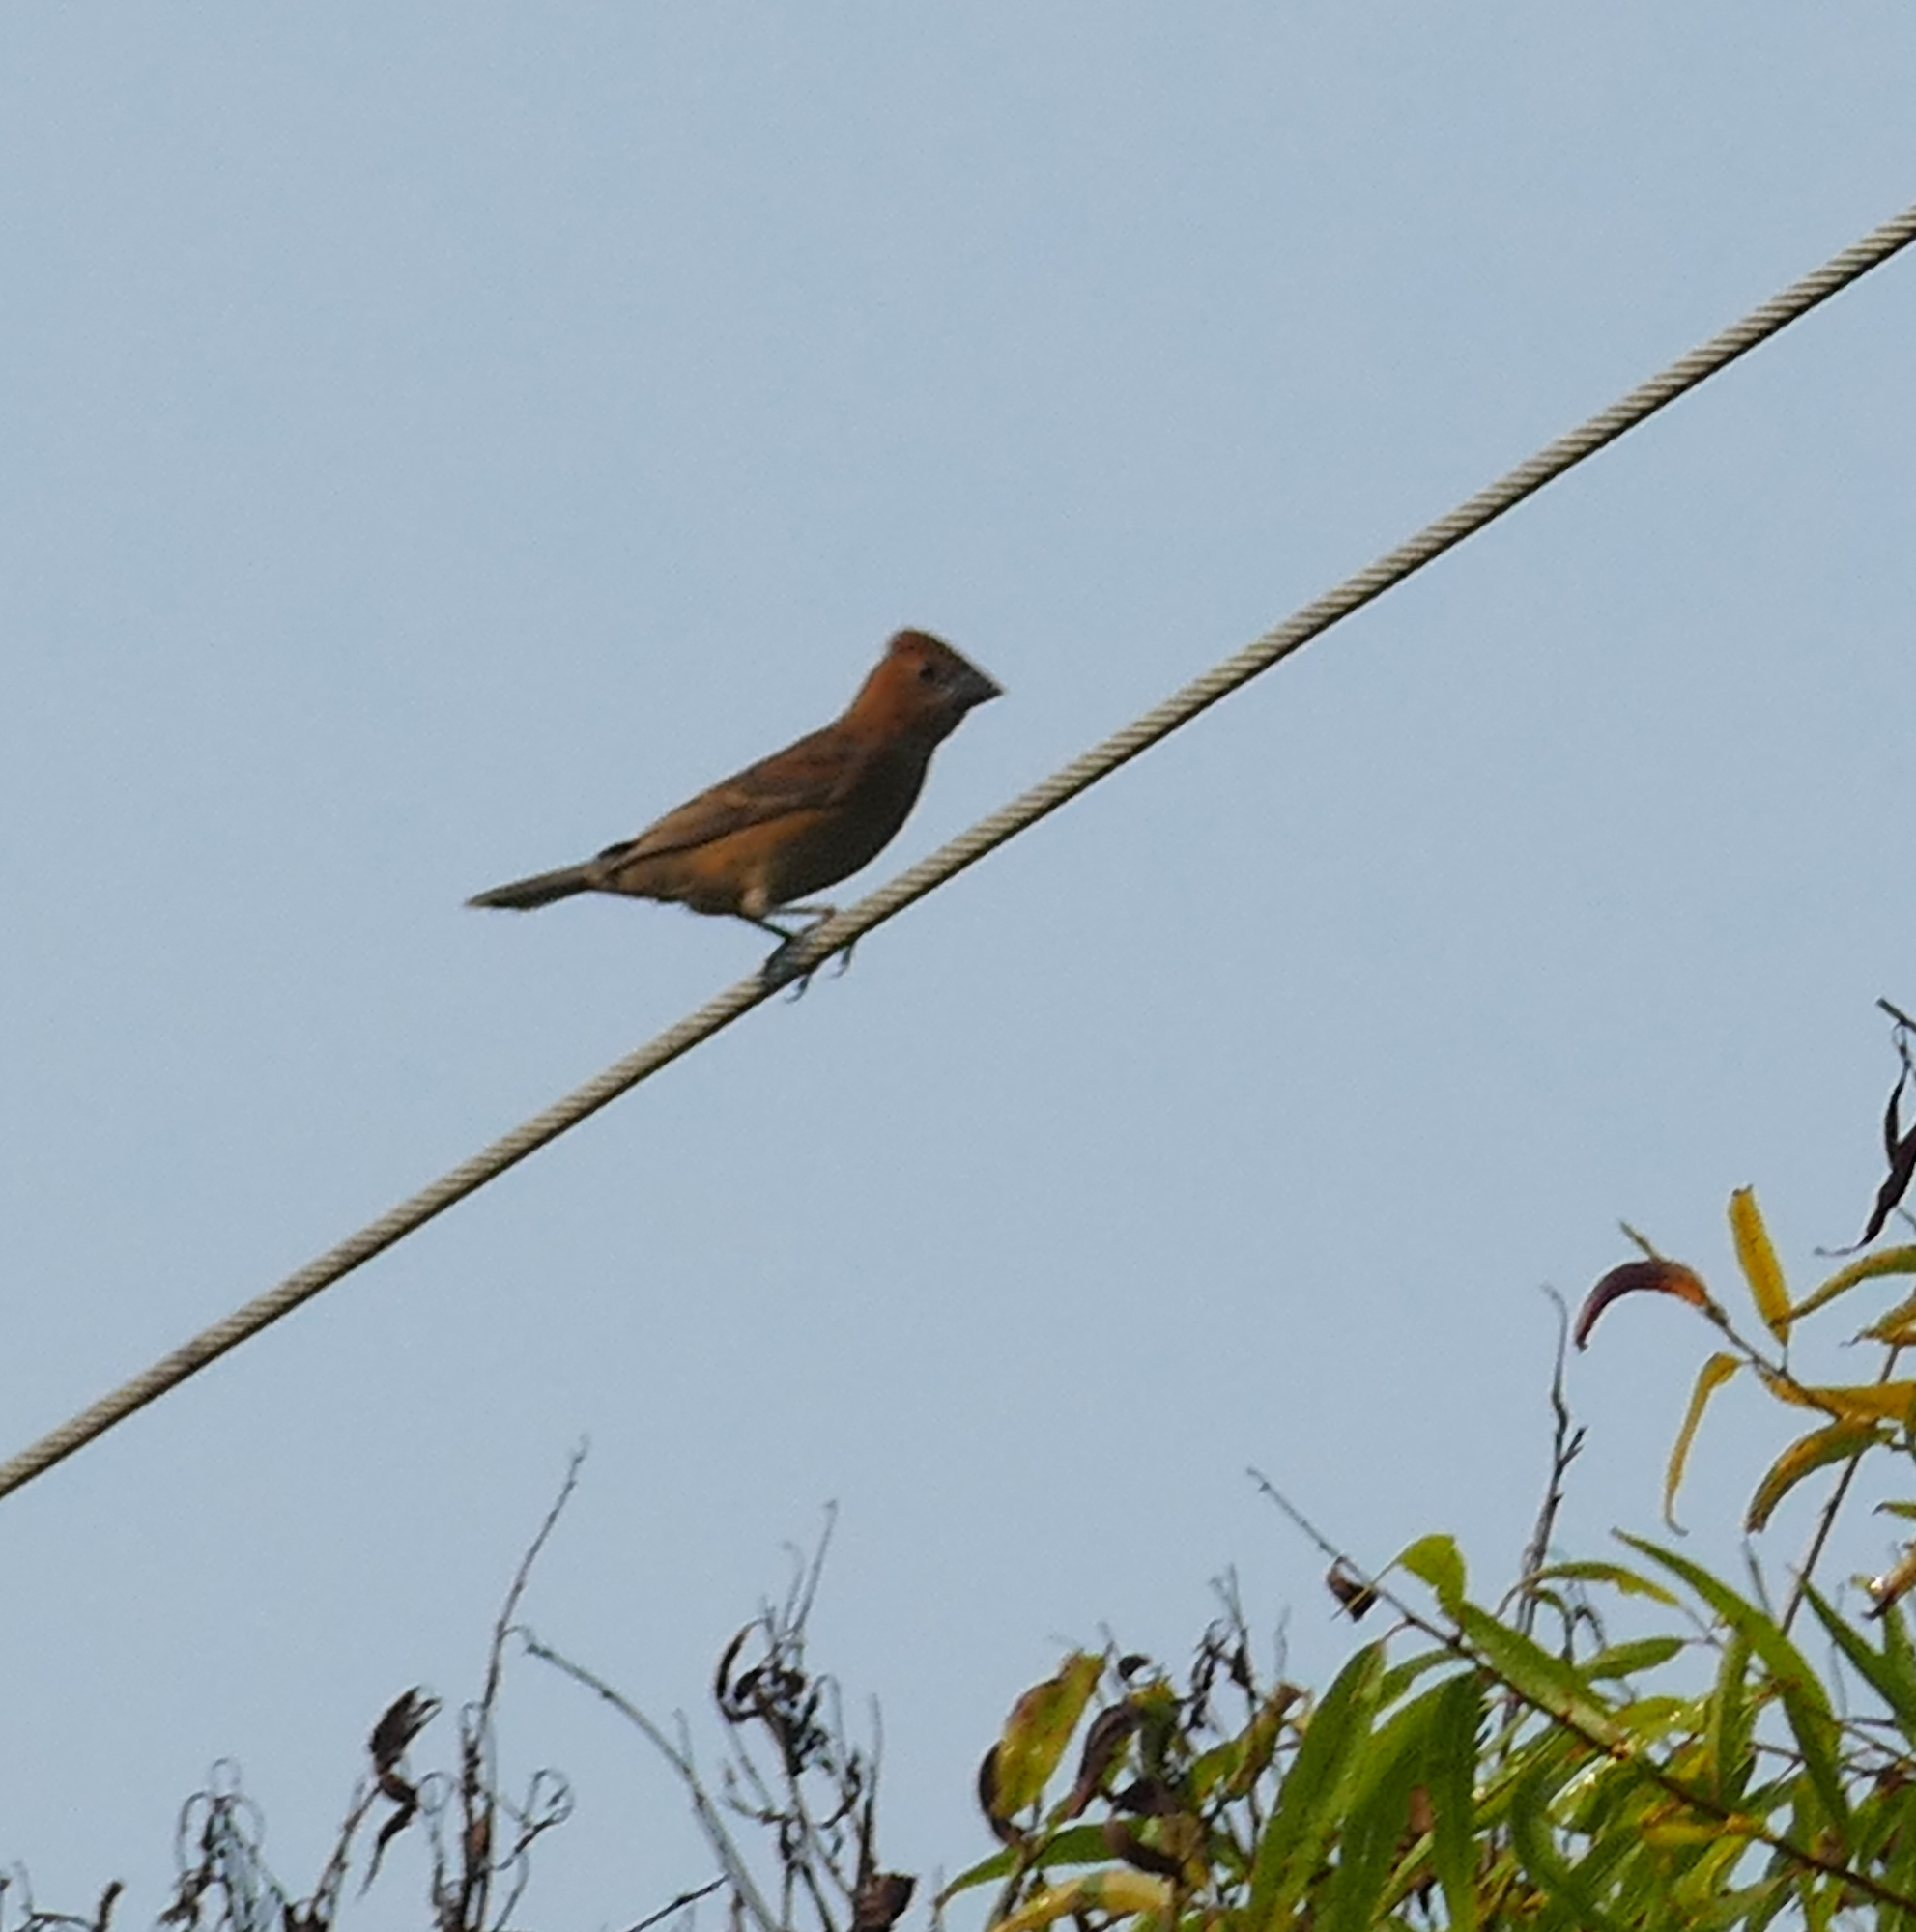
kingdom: Animalia
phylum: Chordata
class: Aves
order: Passeriformes
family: Cardinalidae
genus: Passerina
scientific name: Passerina caerulea
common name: Blue grosbeak
